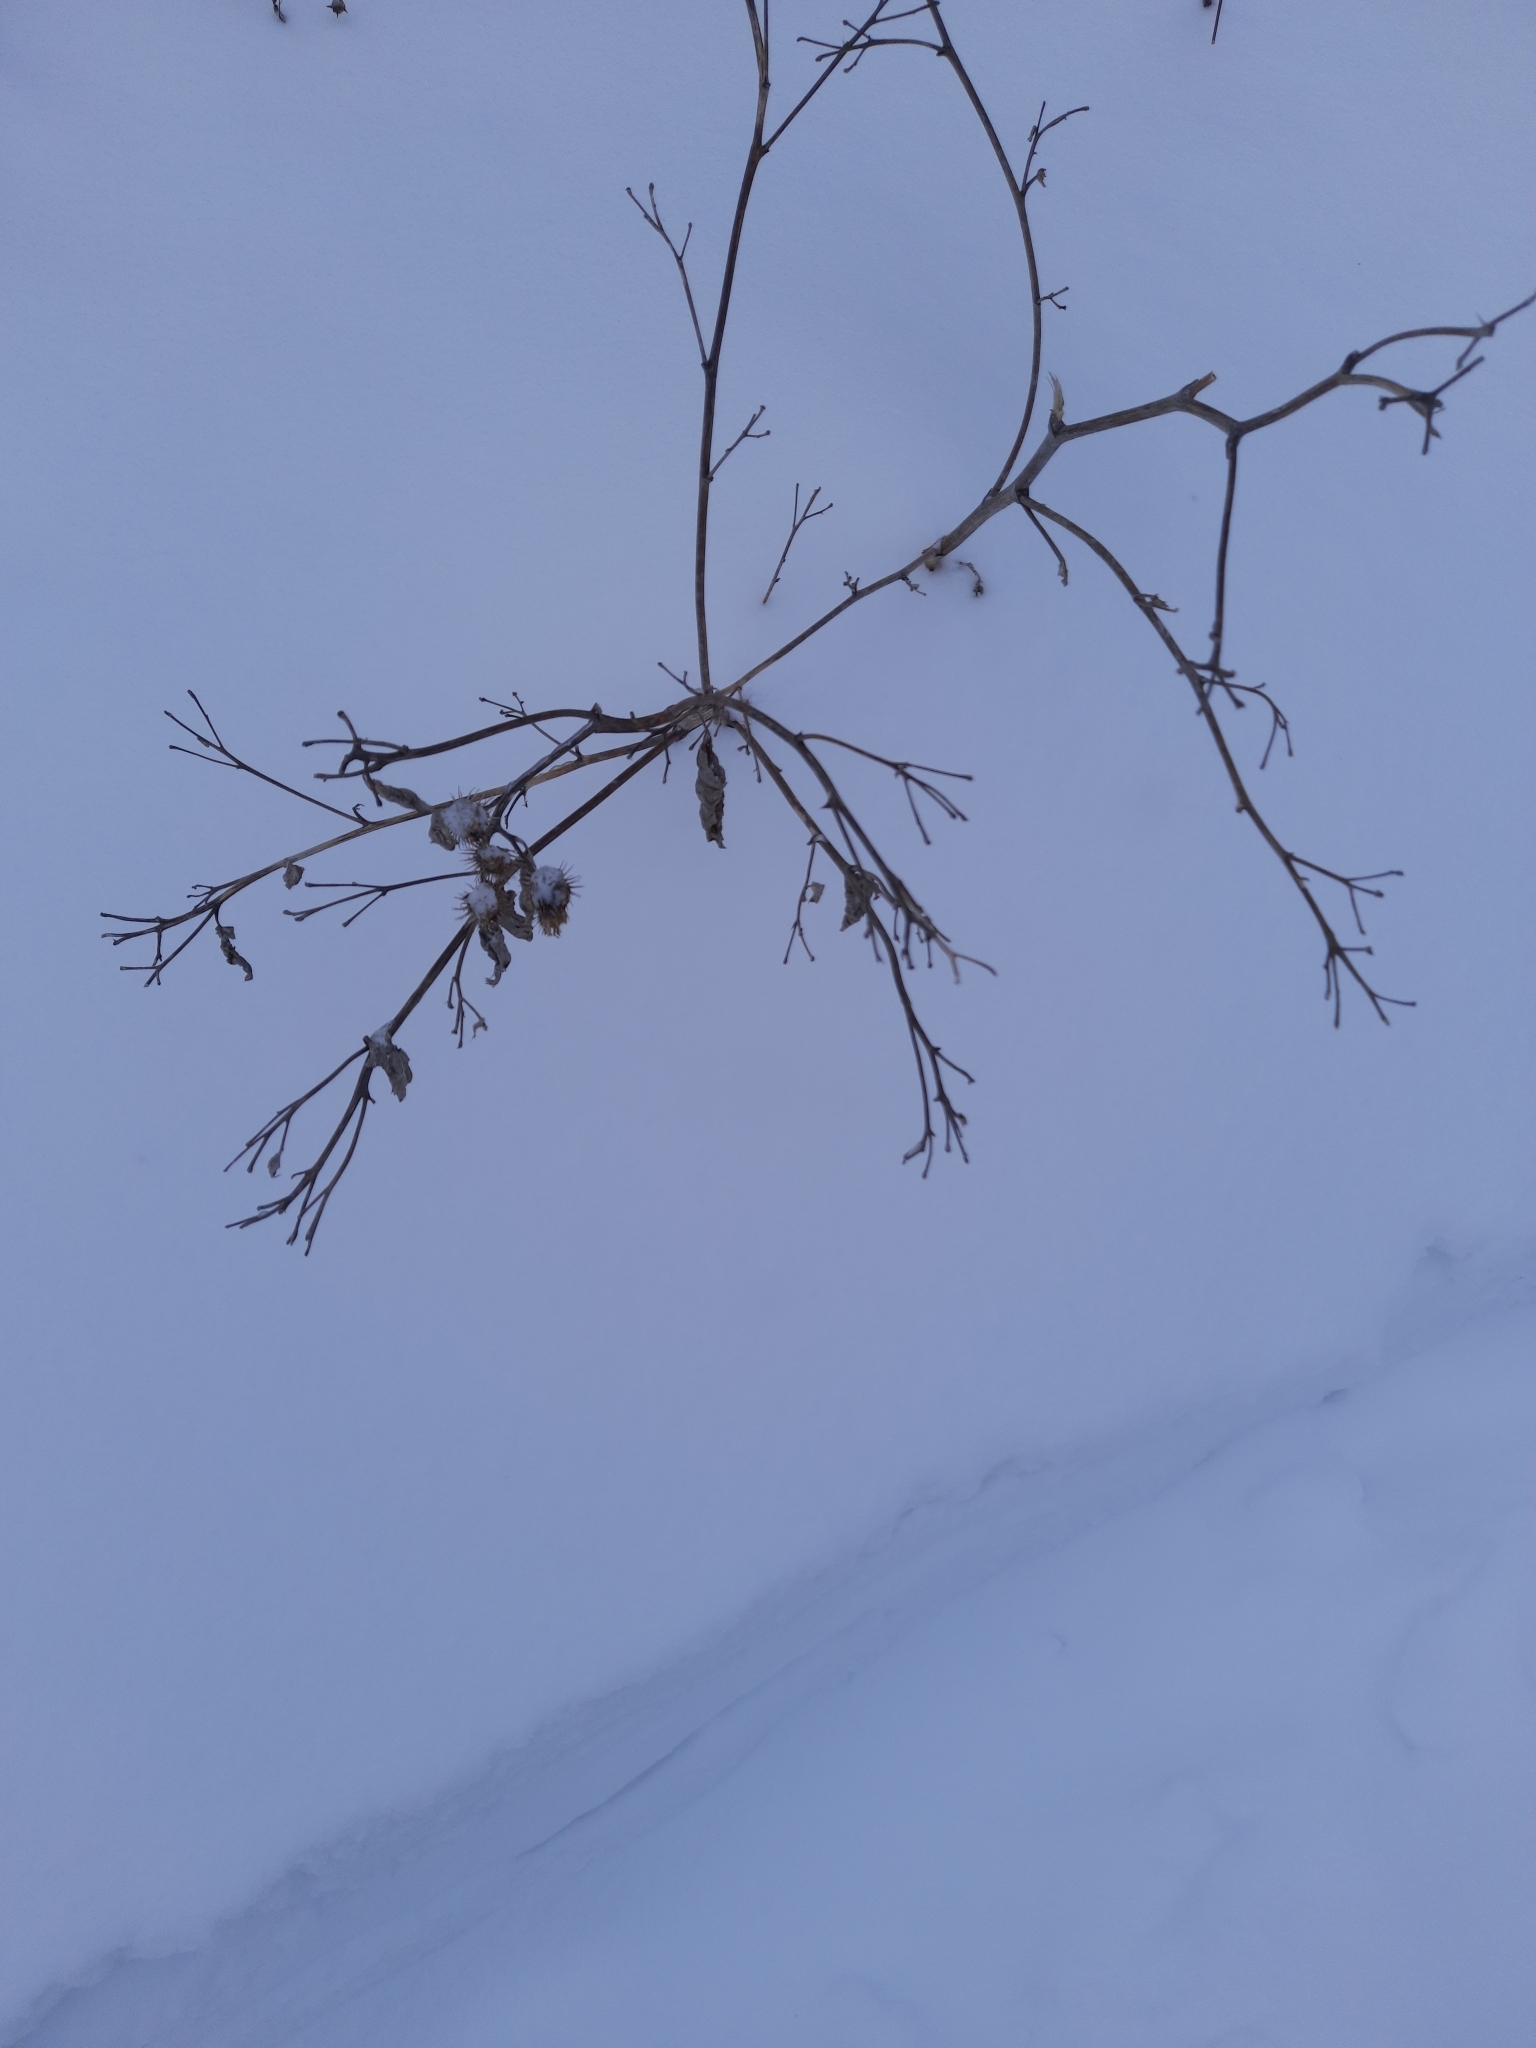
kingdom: Plantae
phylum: Tracheophyta
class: Magnoliopsida
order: Asterales
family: Asteraceae
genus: Arctium
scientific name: Arctium tomentosum
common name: Woolly burdock
